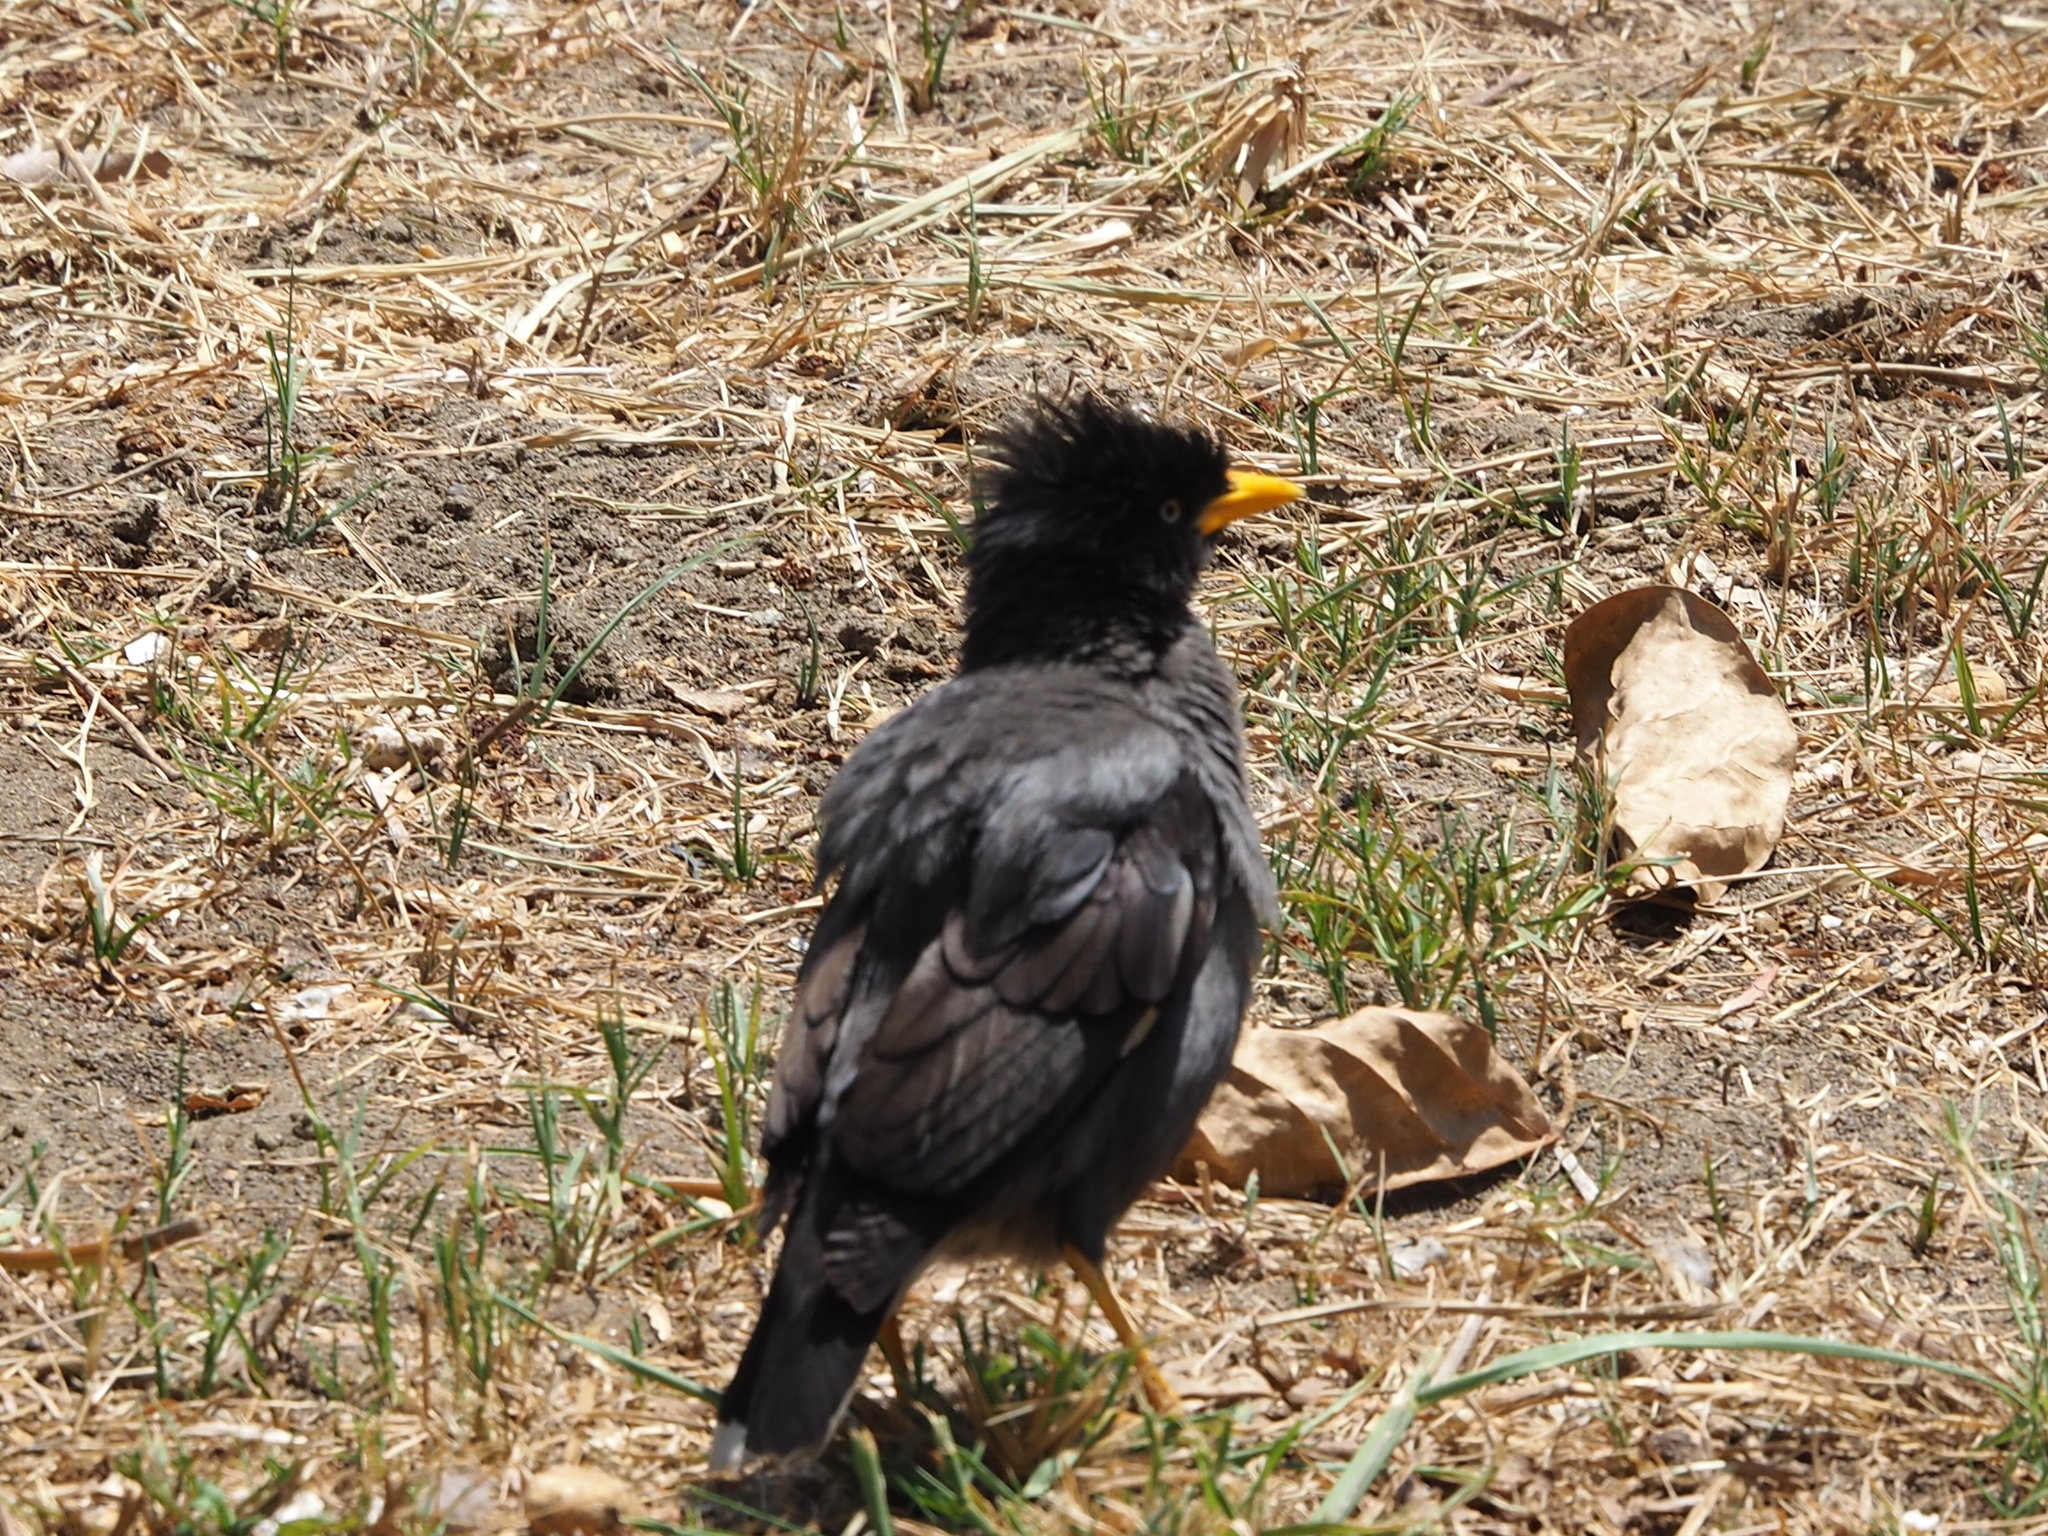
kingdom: Animalia
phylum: Chordata
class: Aves
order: Passeriformes
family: Sturnidae
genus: Acridotheres
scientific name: Acridotheres javanicus
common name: Javan myna
